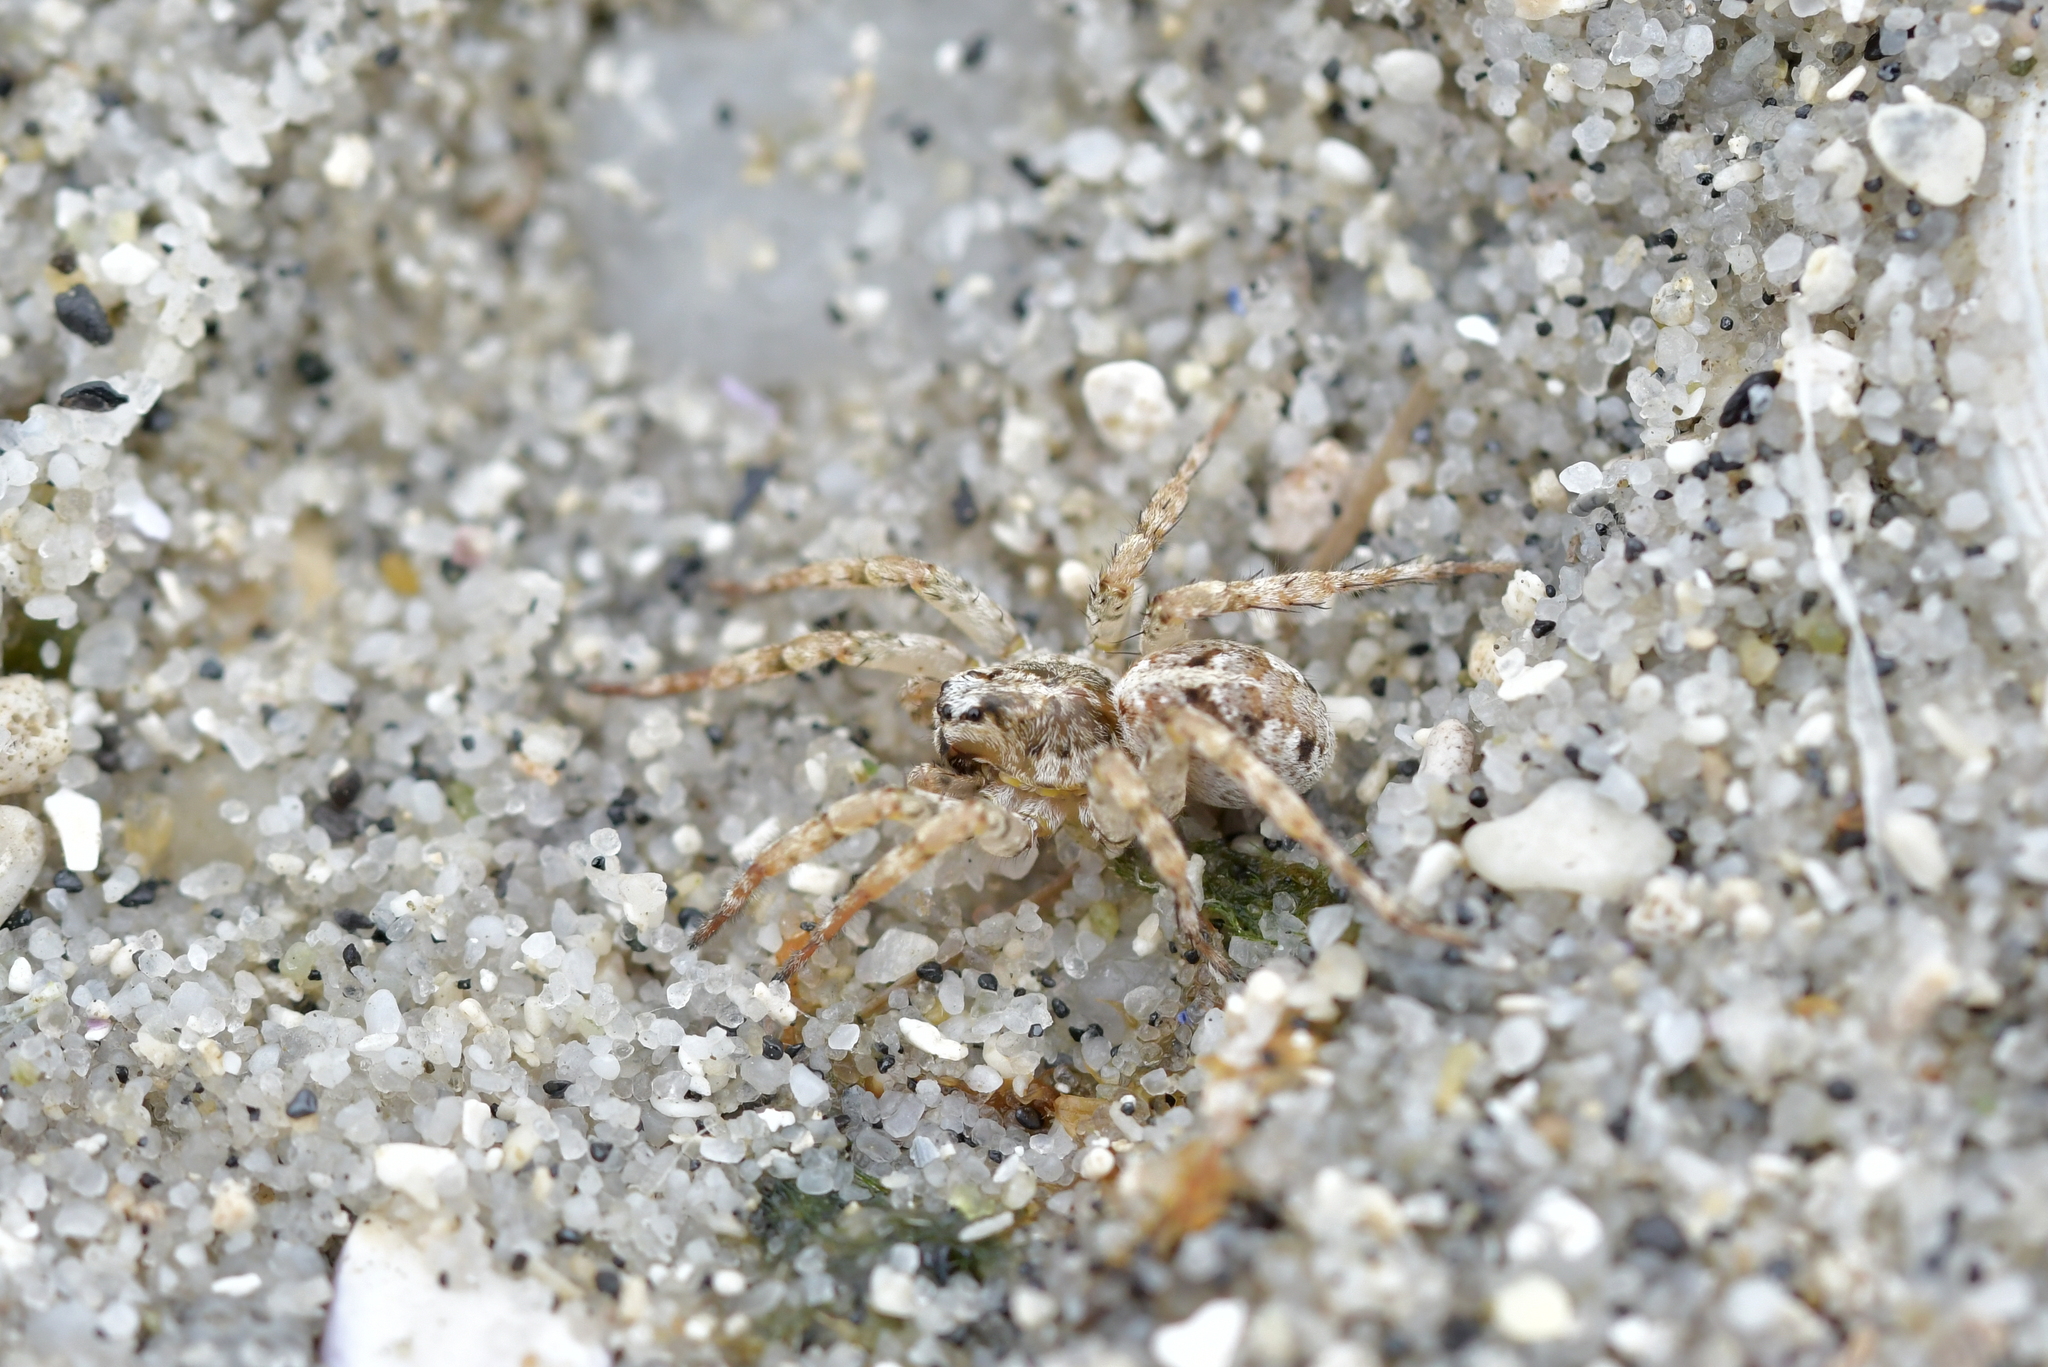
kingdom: Animalia
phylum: Arthropoda
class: Arachnida
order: Araneae
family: Lycosidae
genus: Anoteropsis
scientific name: Anoteropsis insularis
